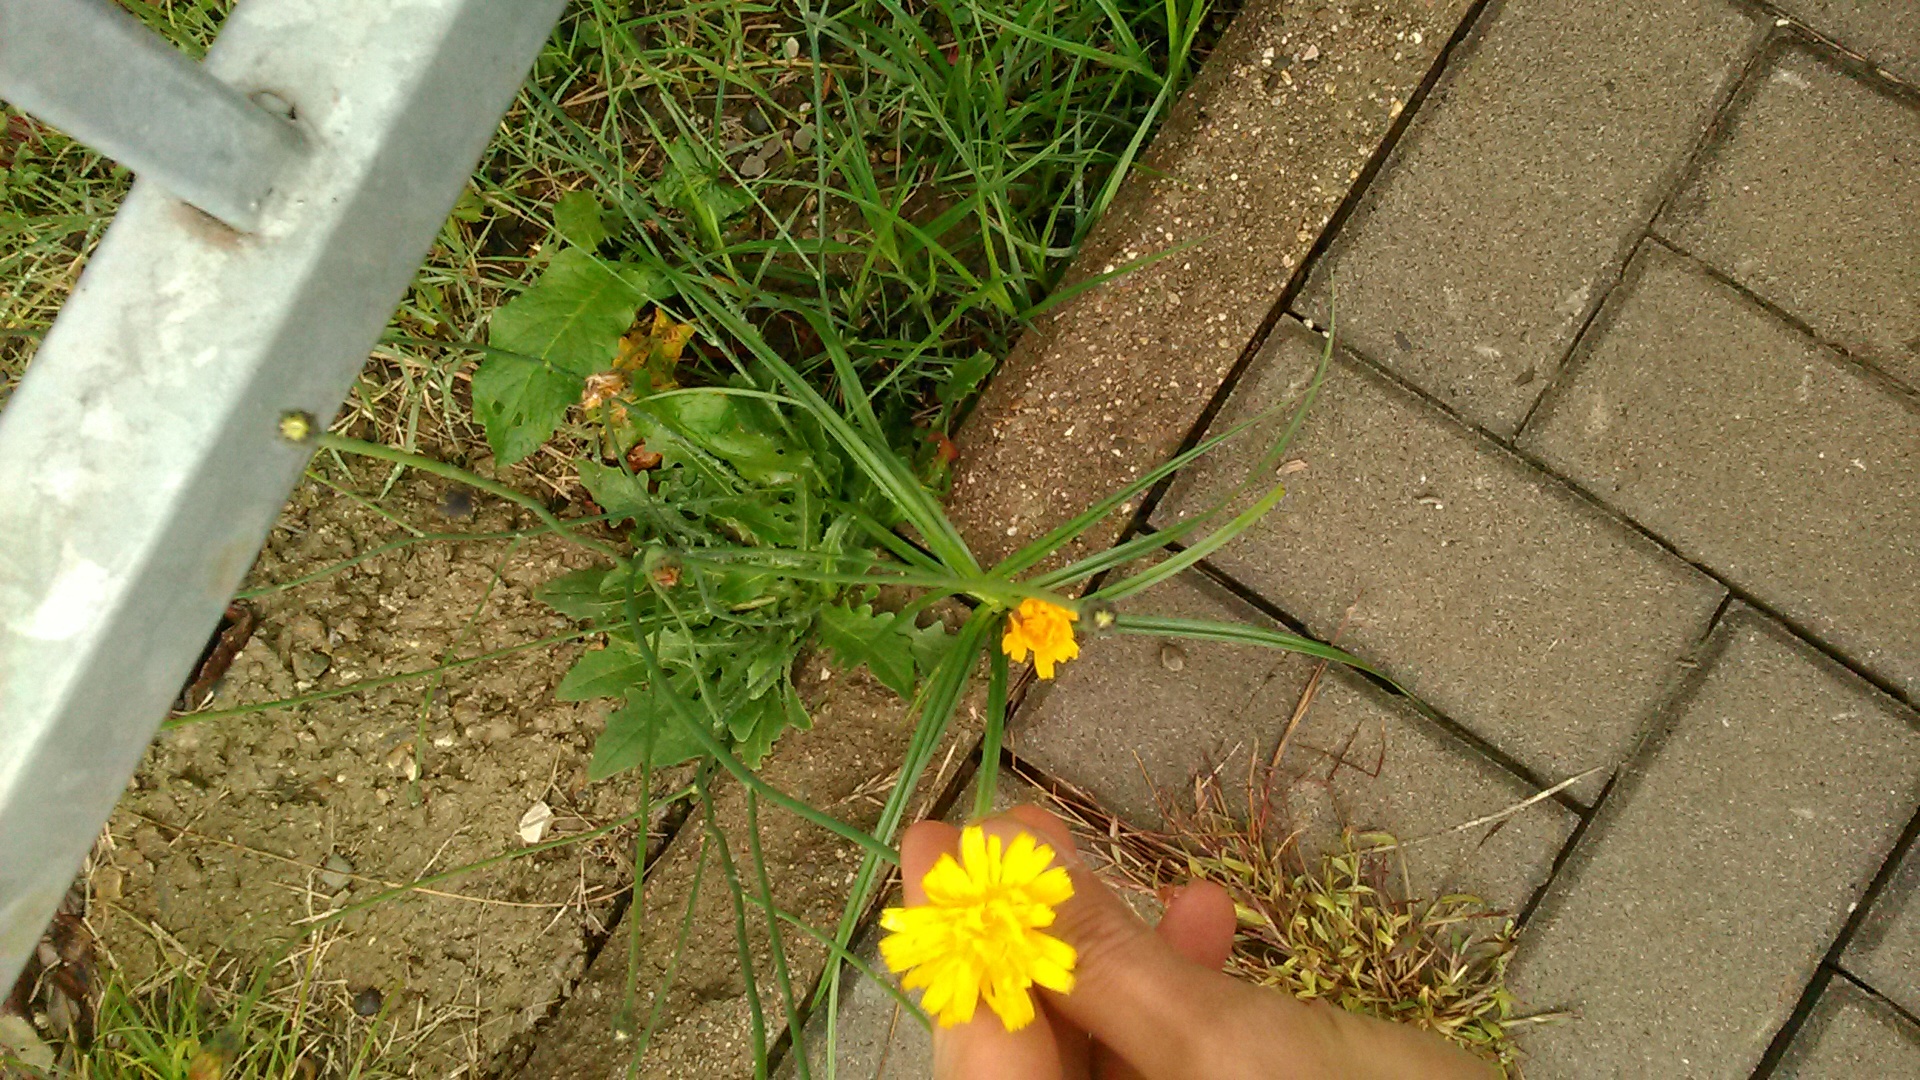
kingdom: Plantae
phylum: Tracheophyta
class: Magnoliopsida
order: Asterales
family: Asteraceae
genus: Hypochaeris
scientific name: Hypochaeris radicata
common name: Flatweed
